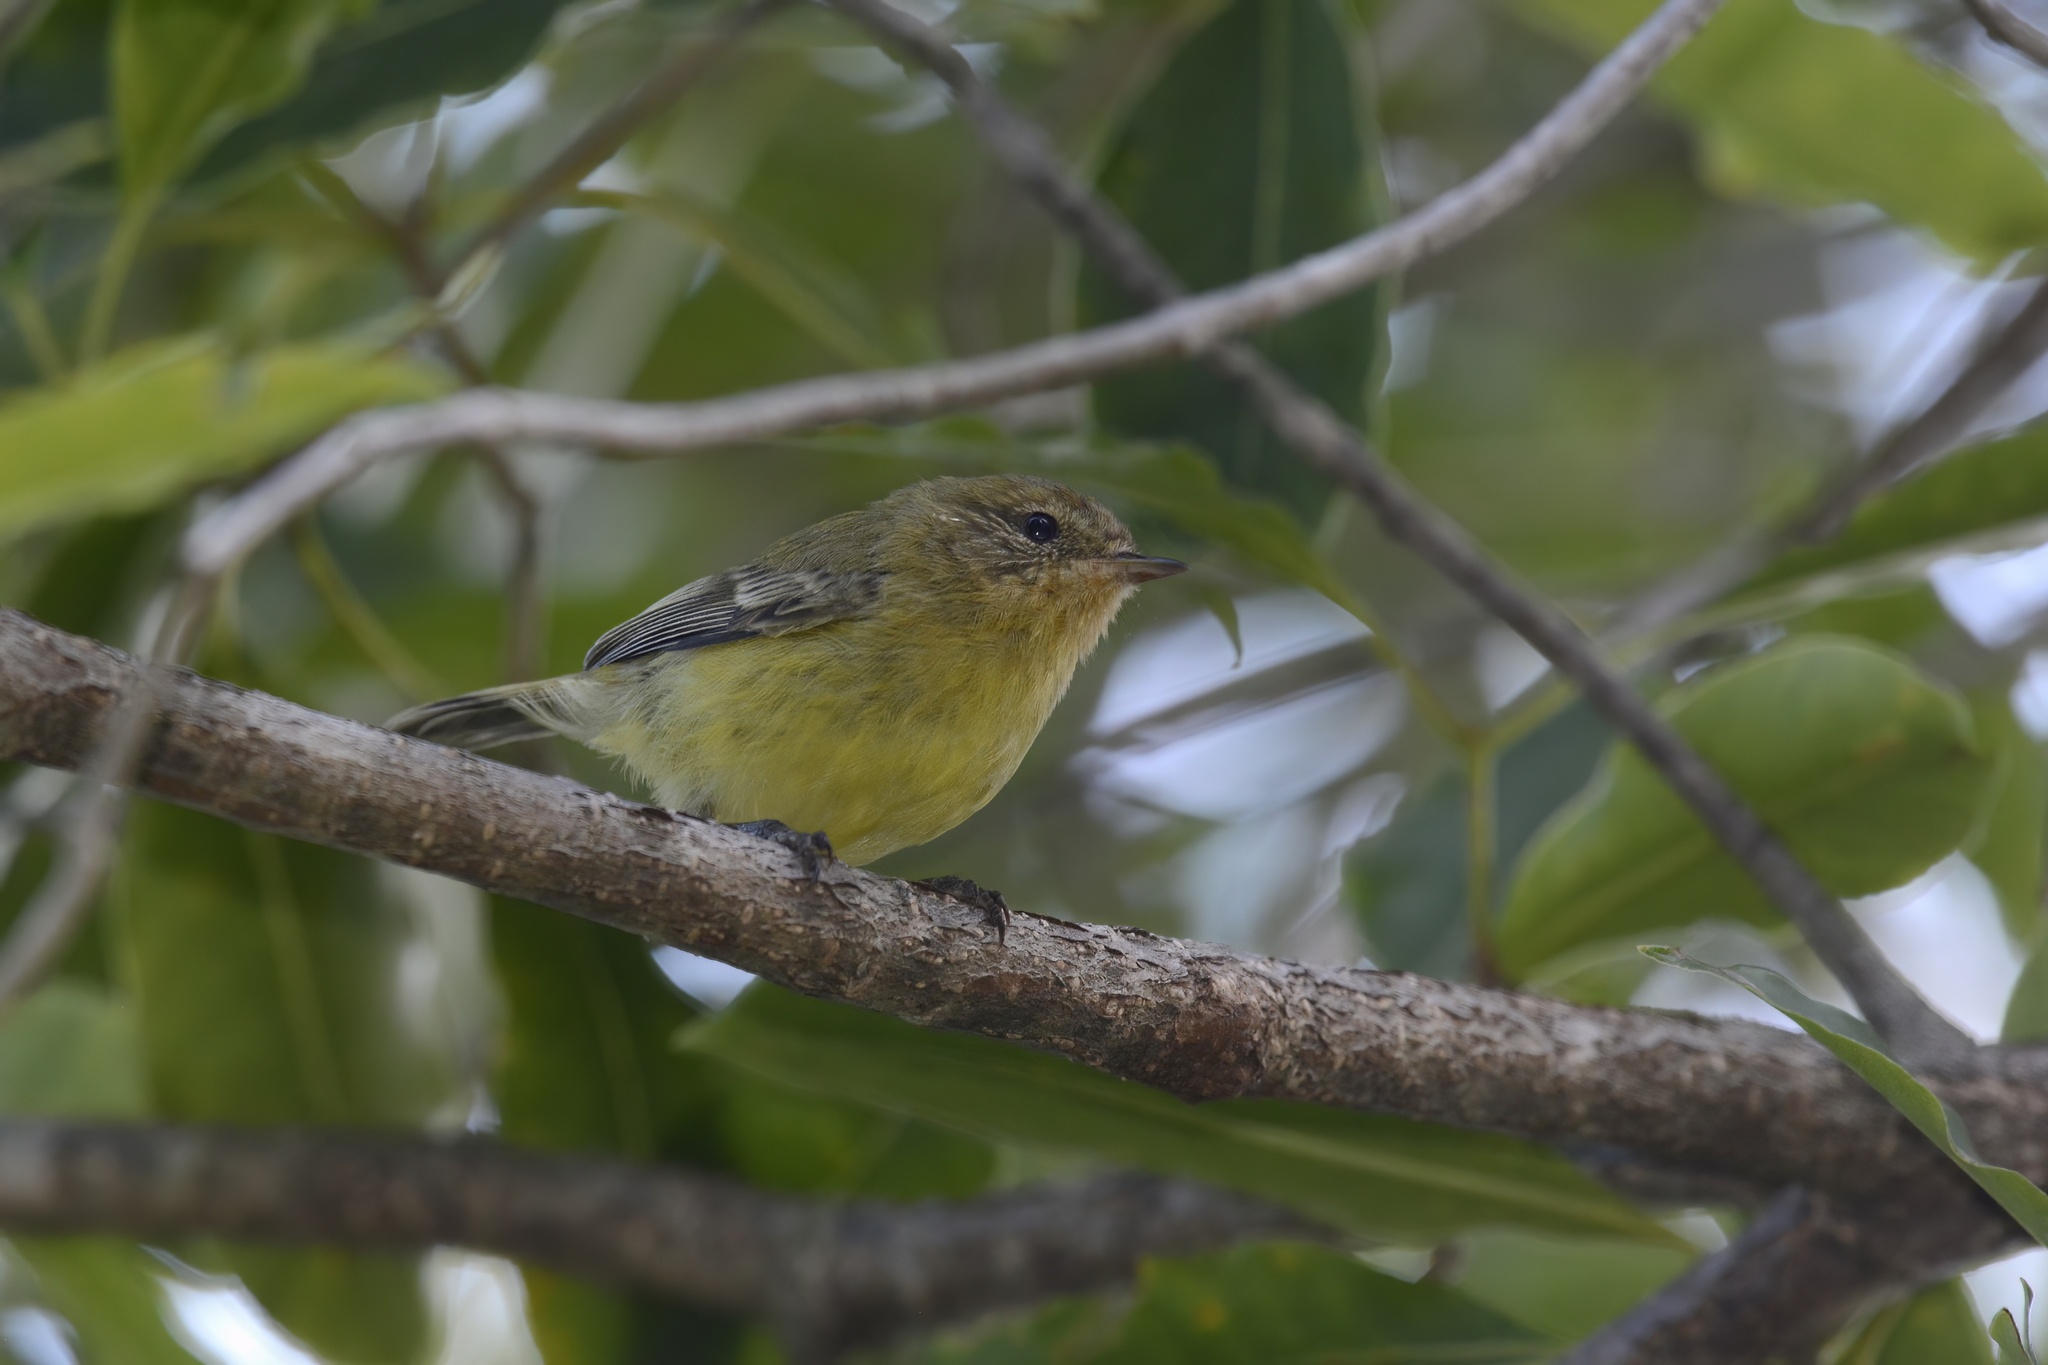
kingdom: Animalia
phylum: Chordata
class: Aves
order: Passeriformes
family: Acanthizidae
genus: Acanthiza
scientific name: Acanthiza nana
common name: Yellow thornbill
